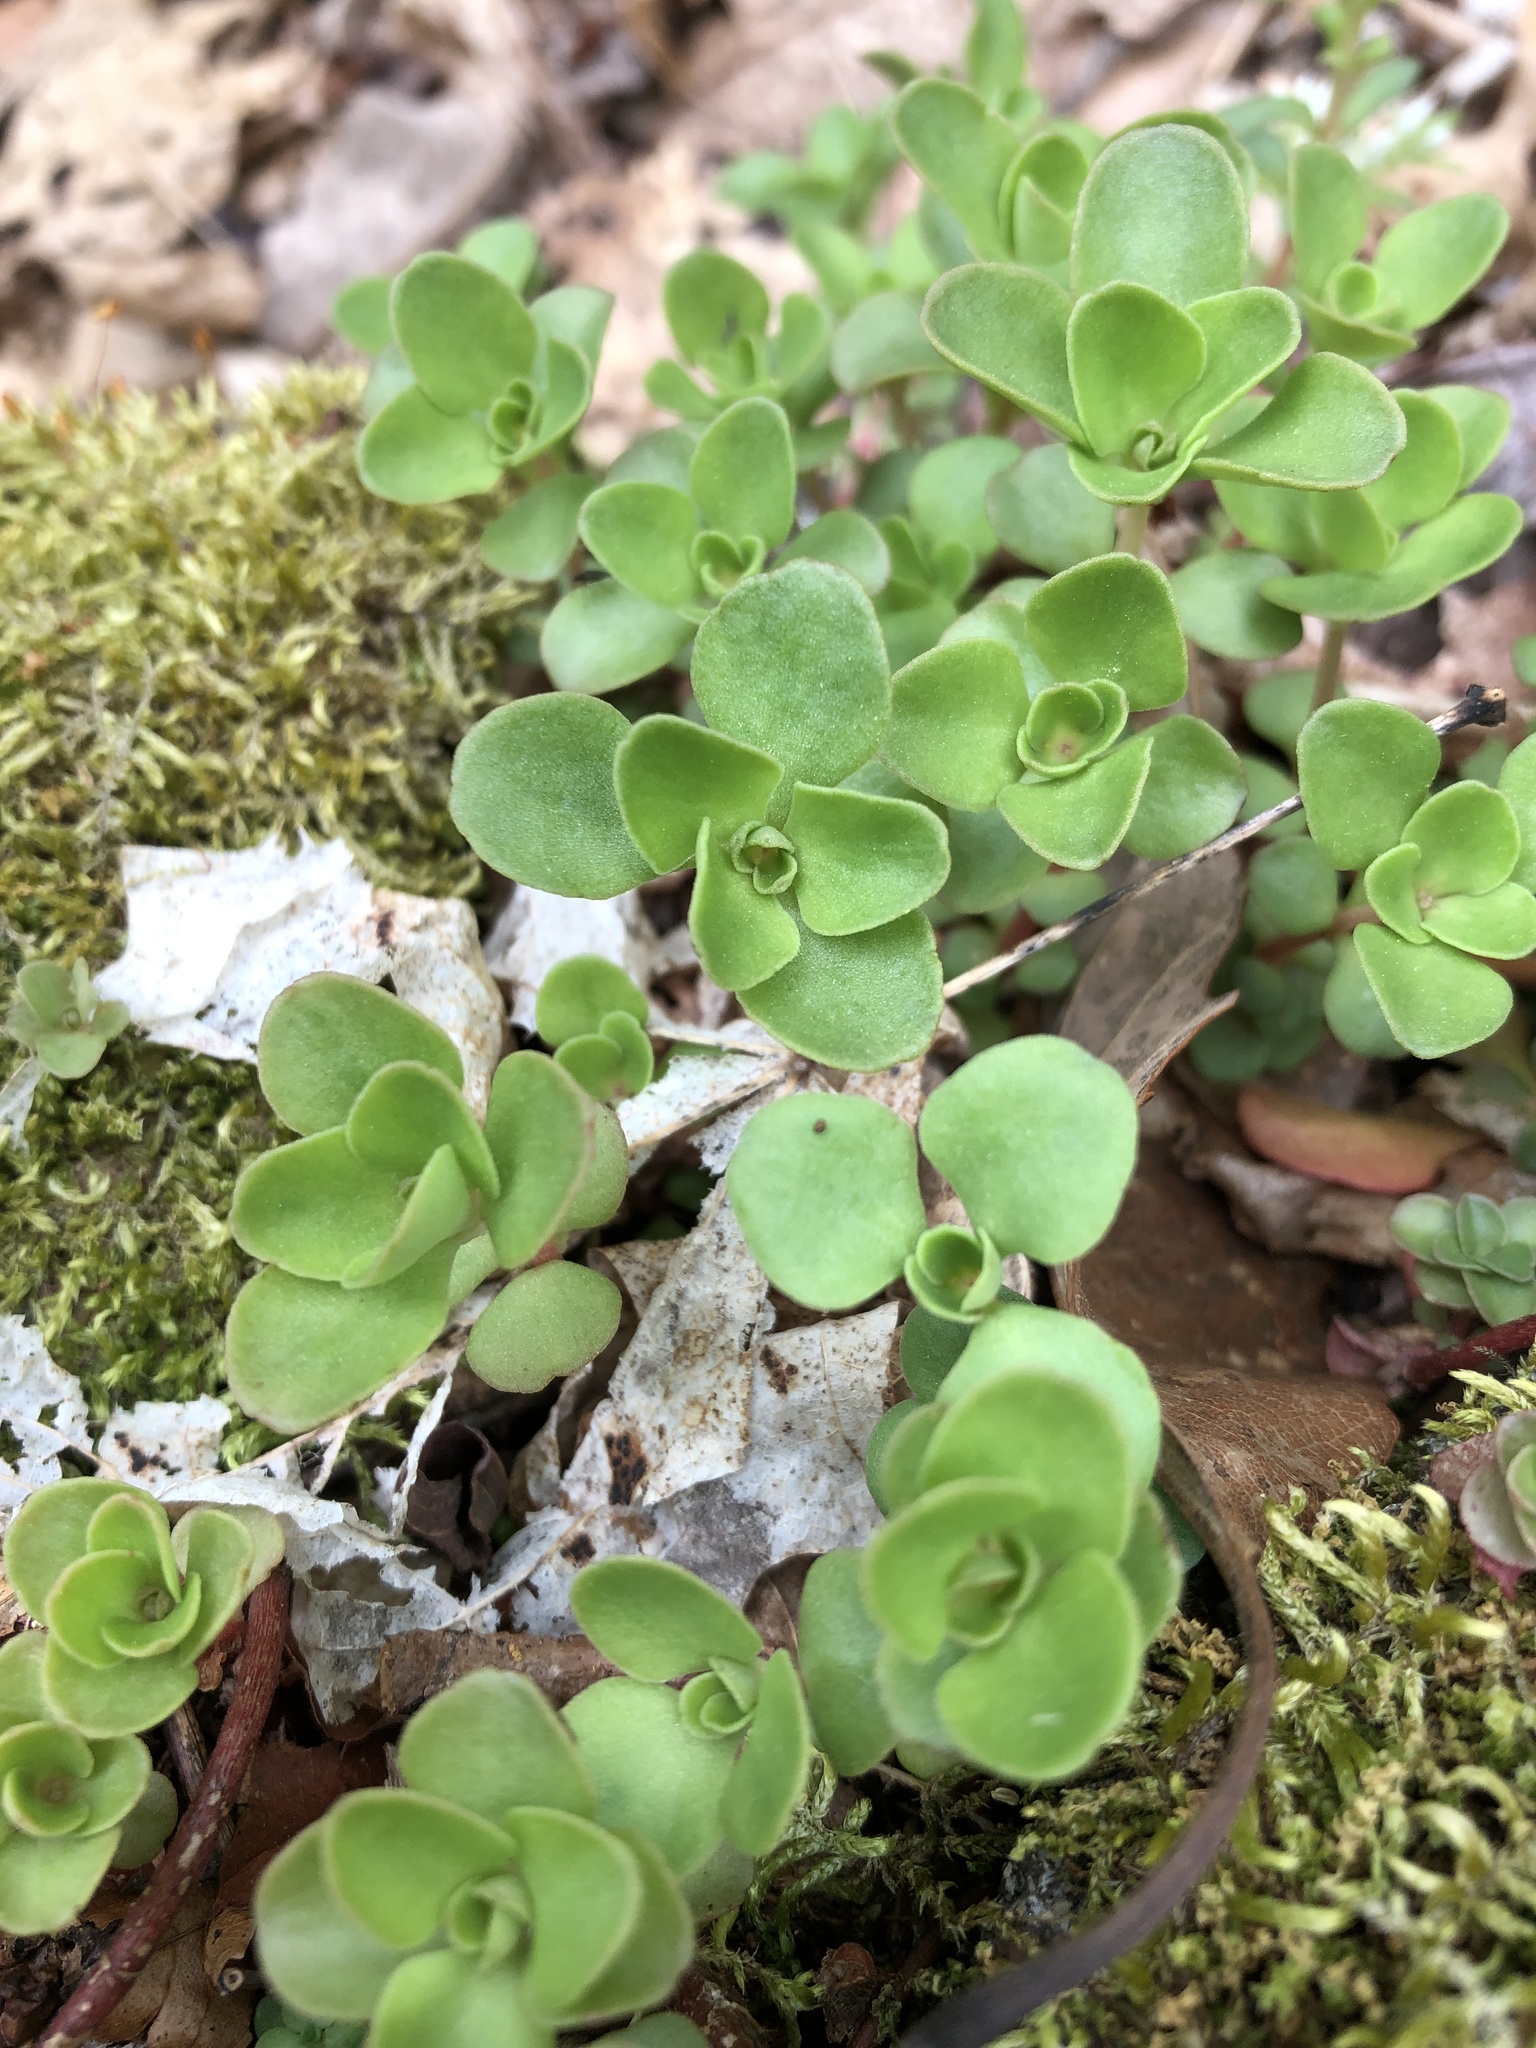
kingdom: Plantae
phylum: Tracheophyta
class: Magnoliopsida
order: Saxifragales
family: Crassulaceae
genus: Sedum
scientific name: Sedum ternatum
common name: Wild stonecrop
